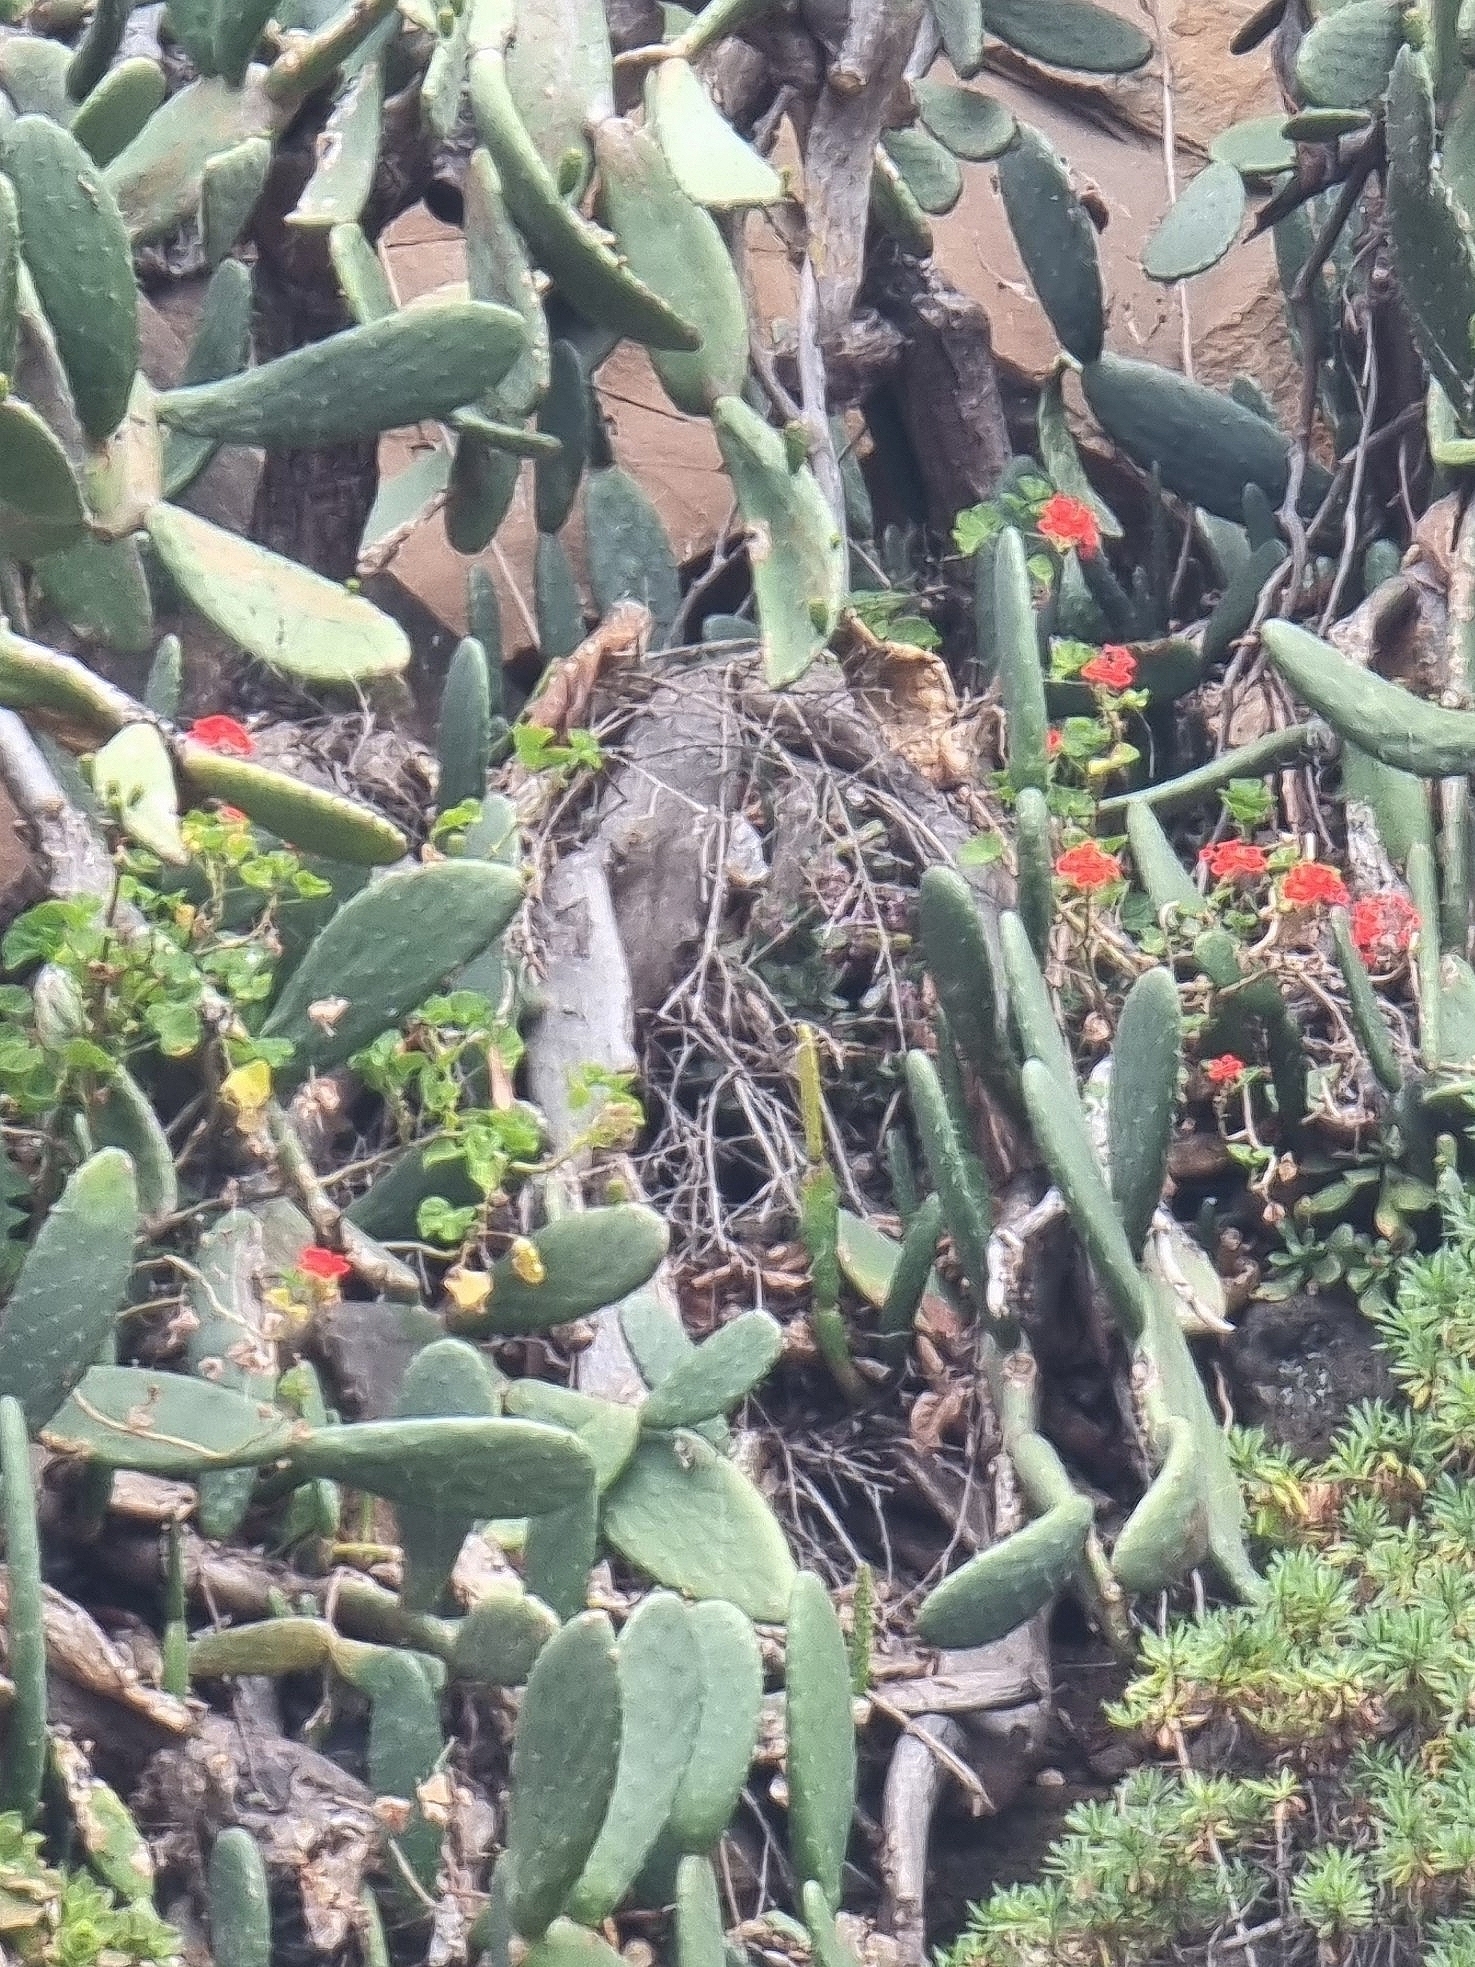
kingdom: Plantae
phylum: Tracheophyta
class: Magnoliopsida
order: Geraniales
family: Geraniaceae
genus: Pelargonium
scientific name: Pelargonium hybridum
